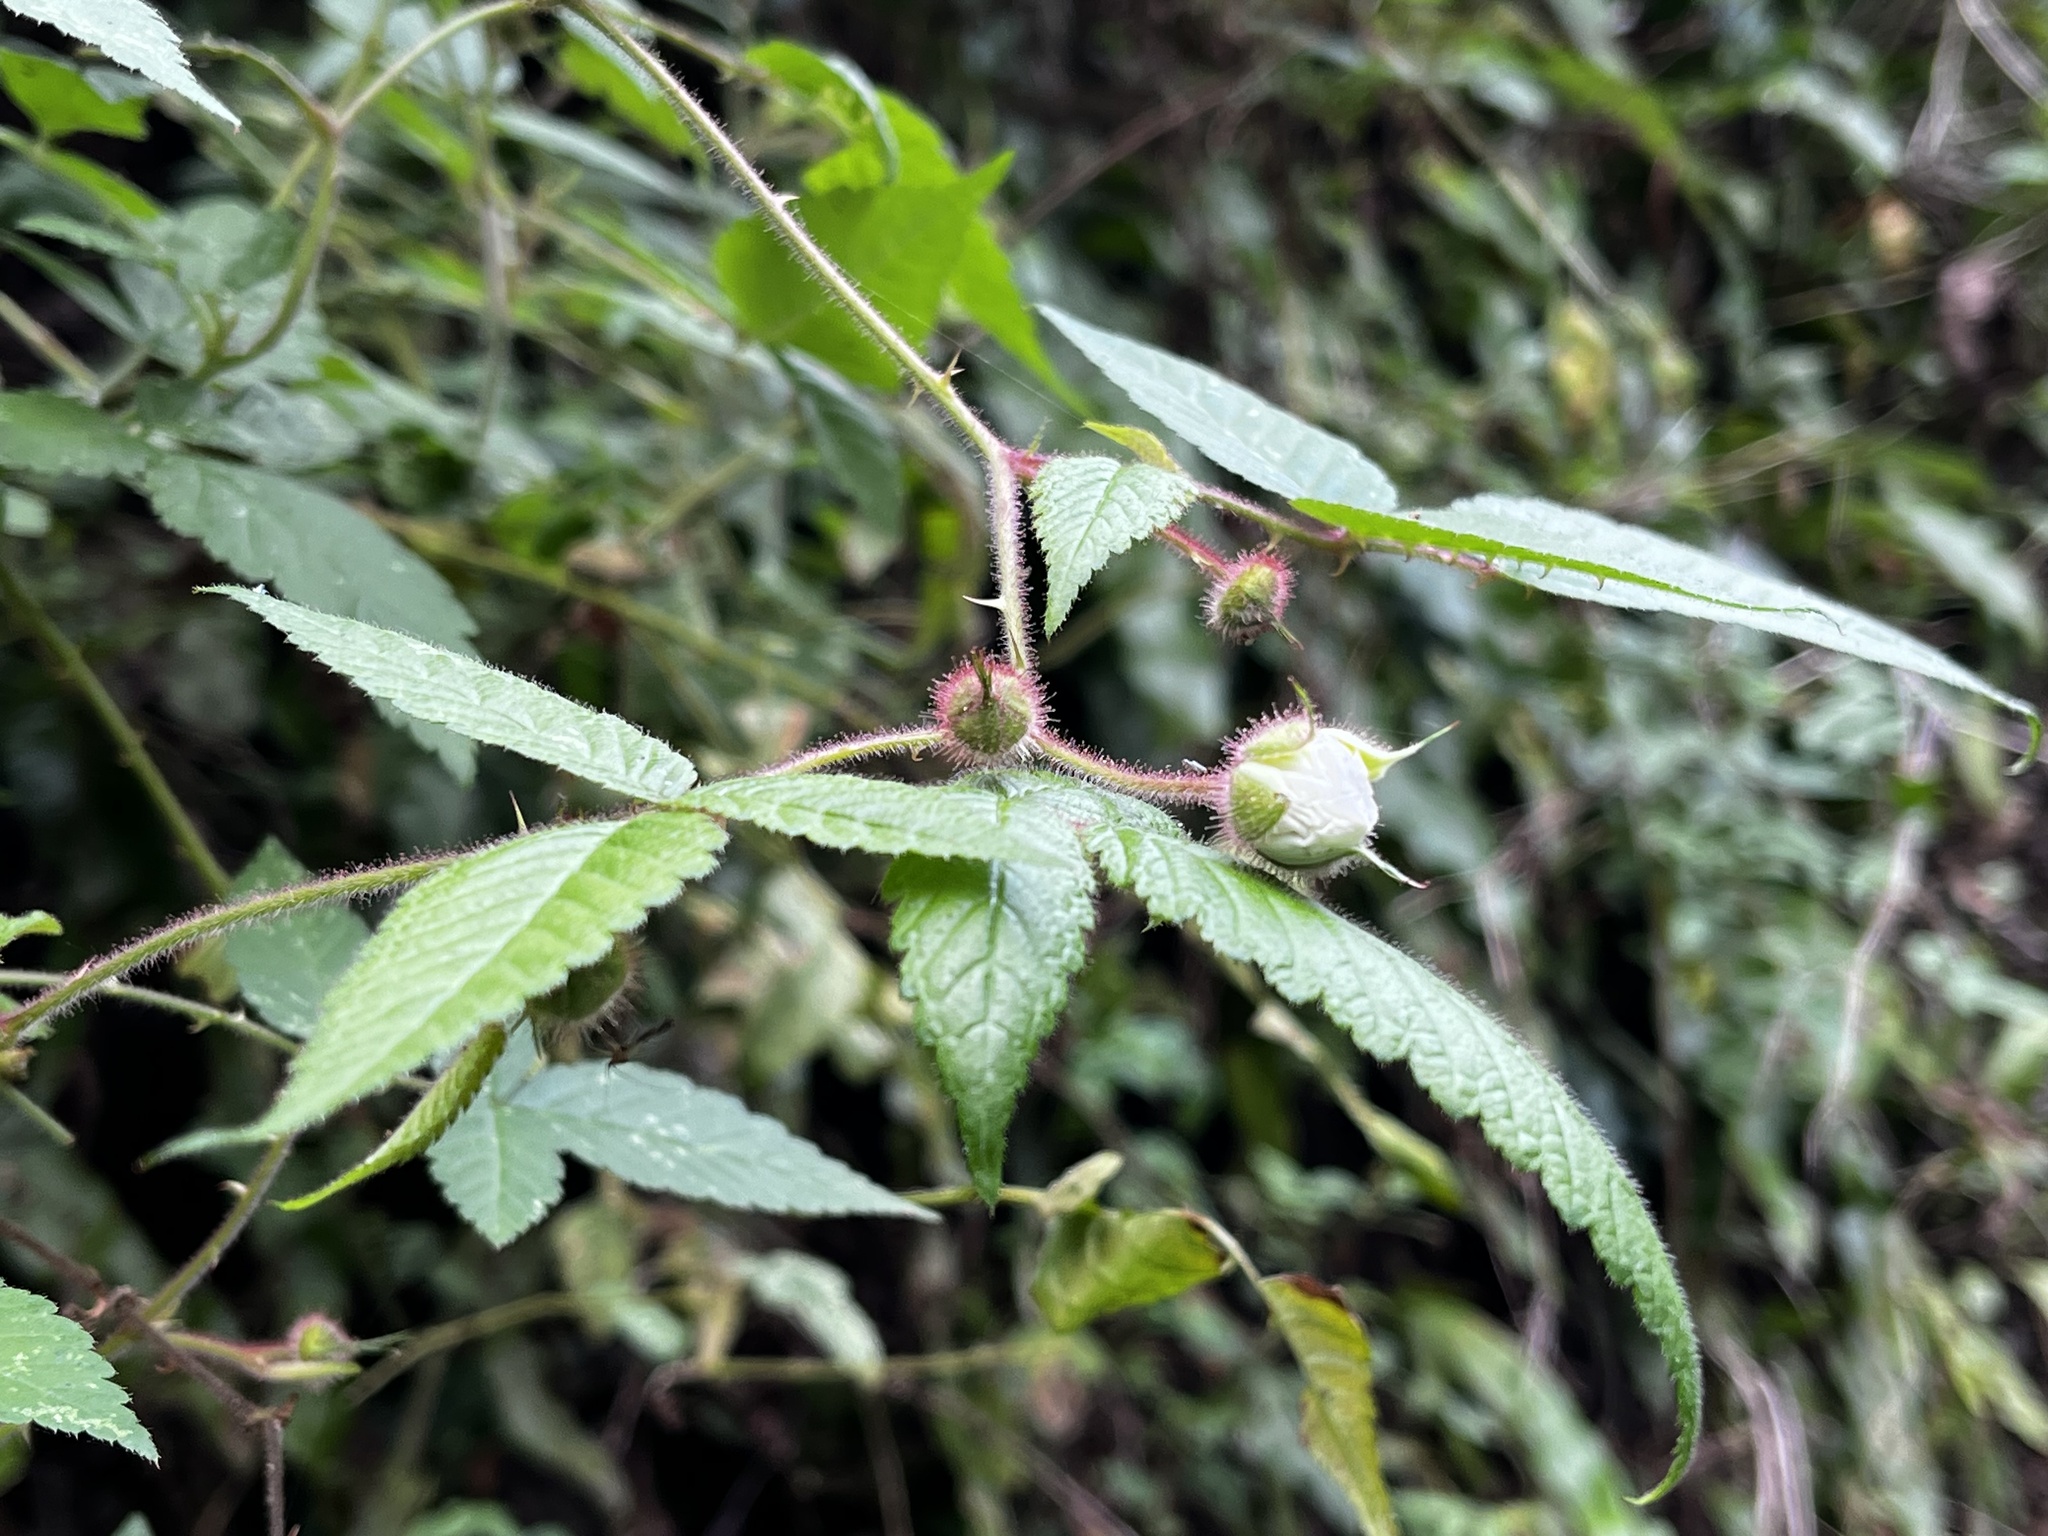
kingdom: Plantae
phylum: Tracheophyta
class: Magnoliopsida
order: Rosales
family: Rosaceae
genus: Rubus
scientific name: Rubus croceacanthus
